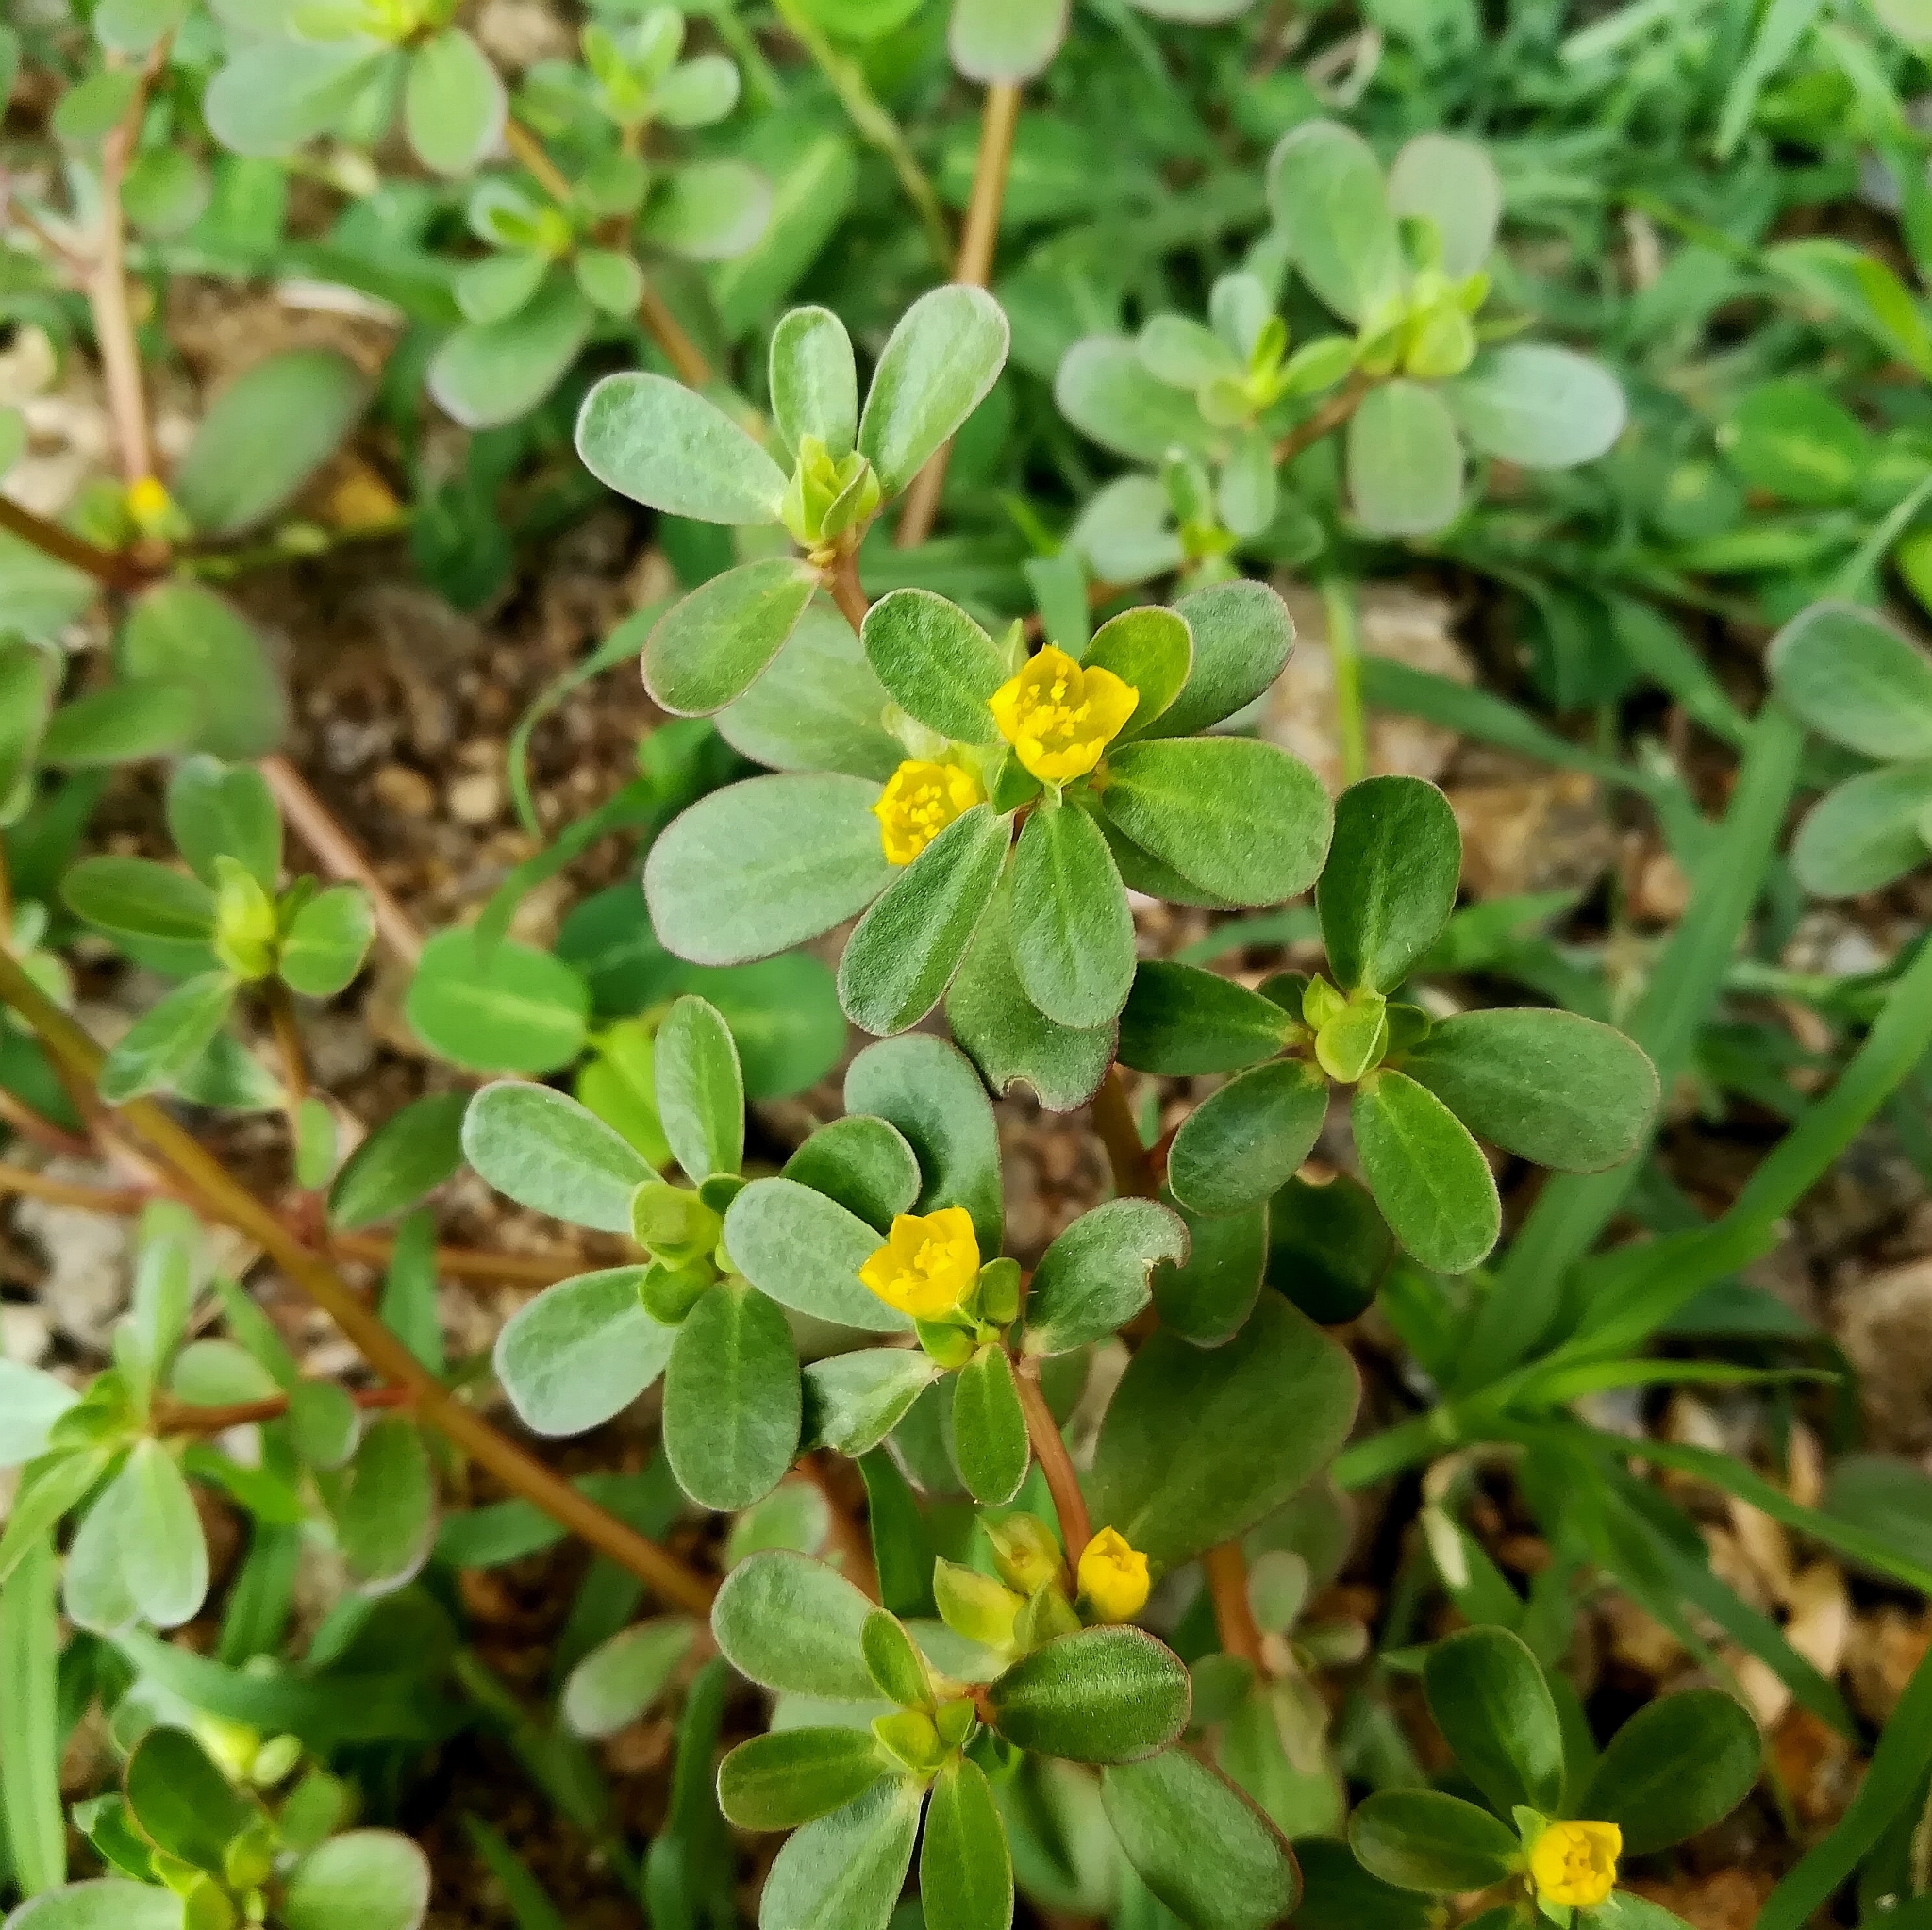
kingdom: Plantae
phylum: Tracheophyta
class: Magnoliopsida
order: Caryophyllales
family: Portulacaceae
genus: Portulaca
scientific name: Portulaca oleracea
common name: Common purslane
